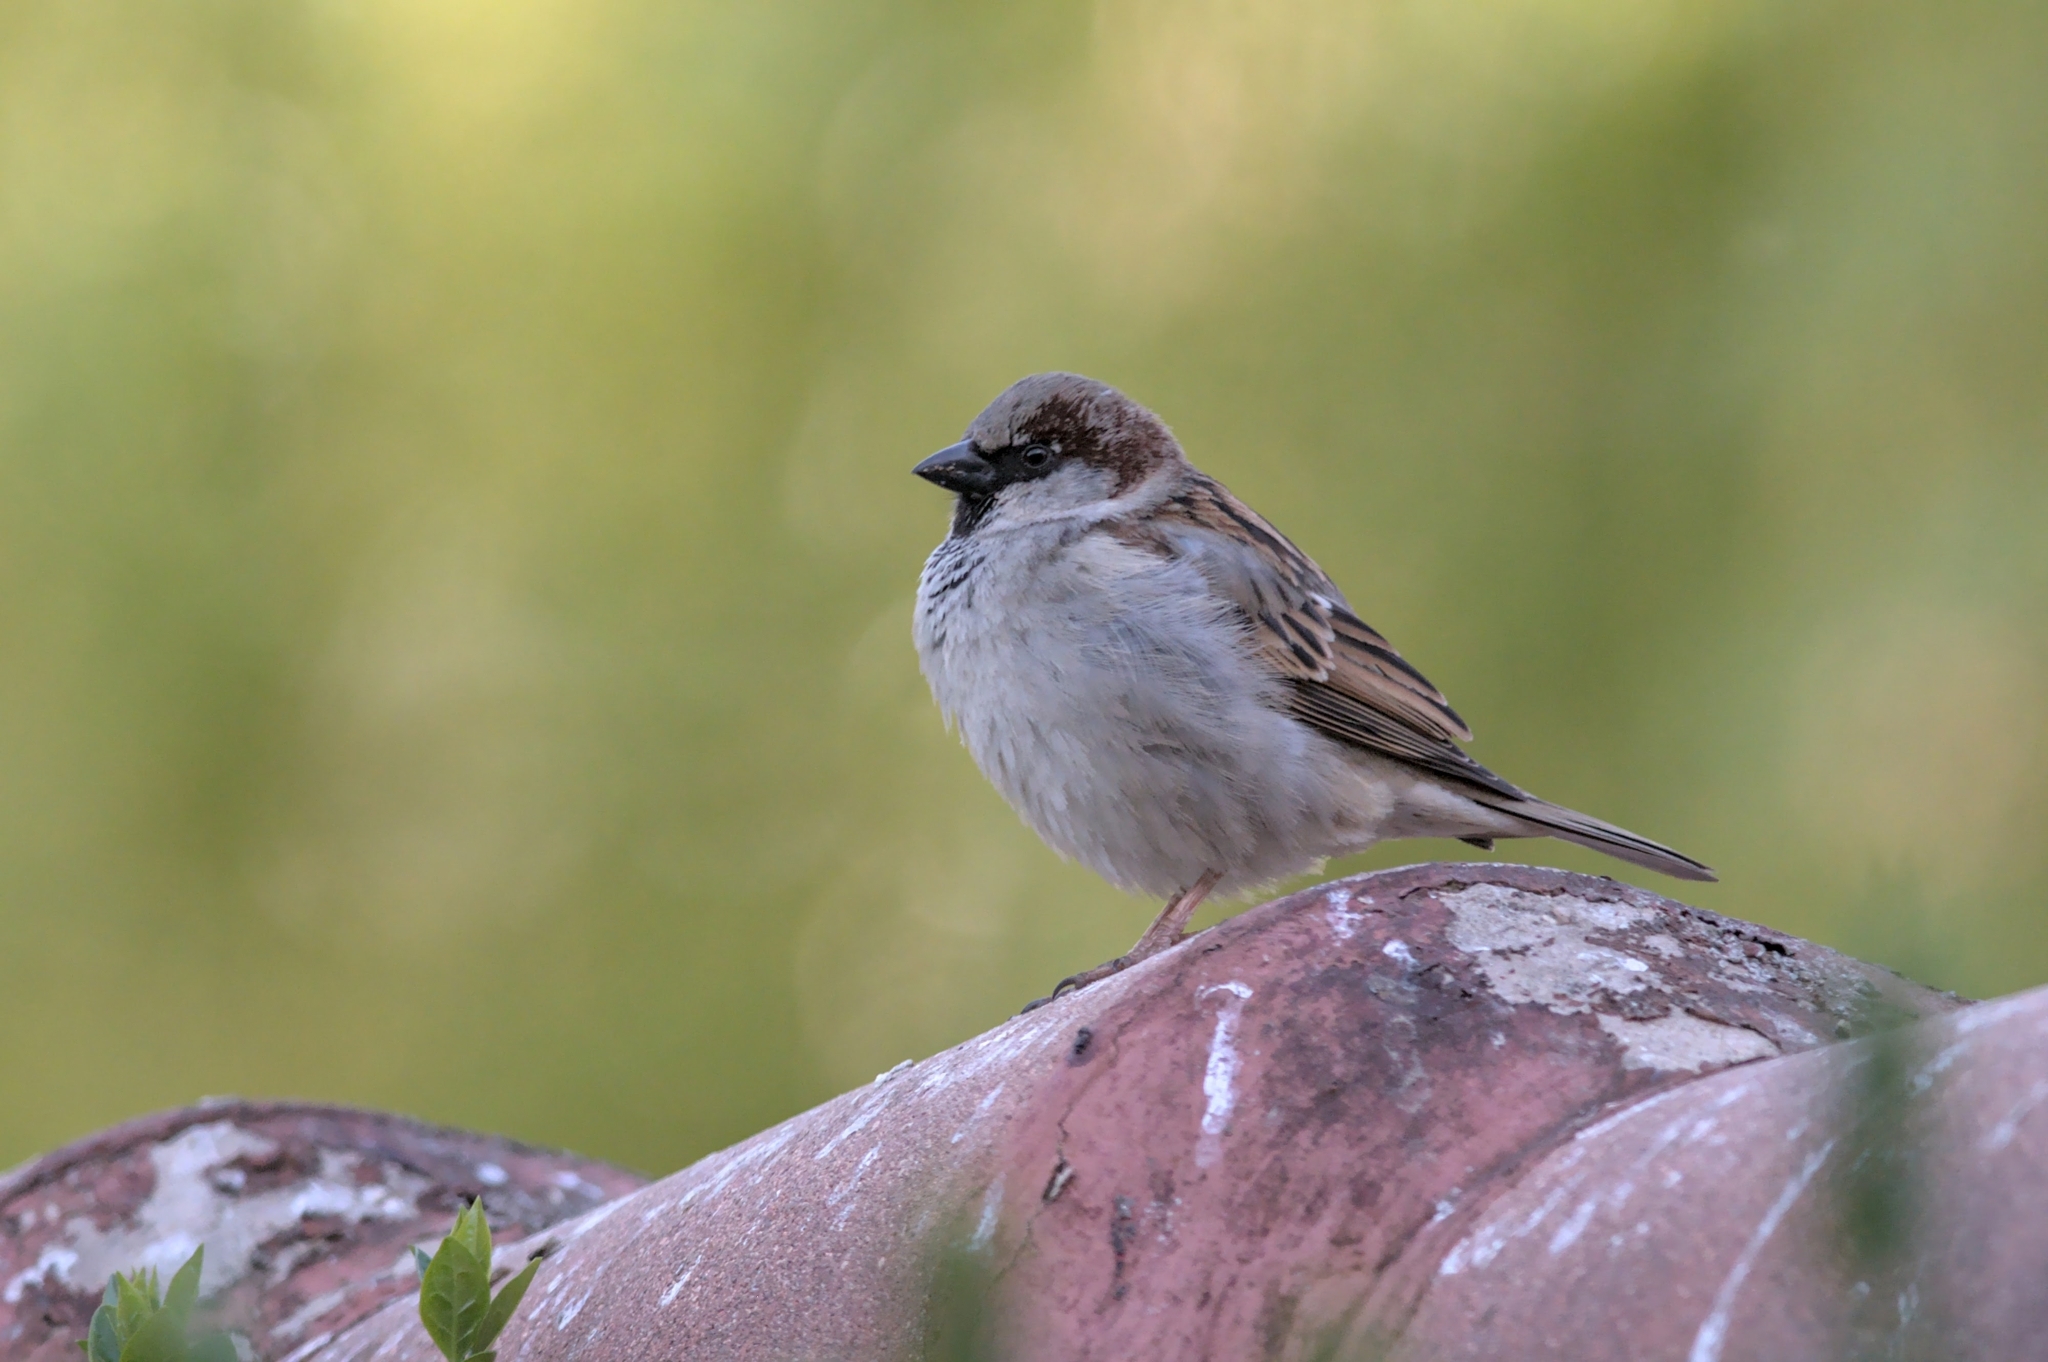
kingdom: Animalia
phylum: Chordata
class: Aves
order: Passeriformes
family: Passeridae
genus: Passer
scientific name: Passer domesticus
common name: House sparrow
